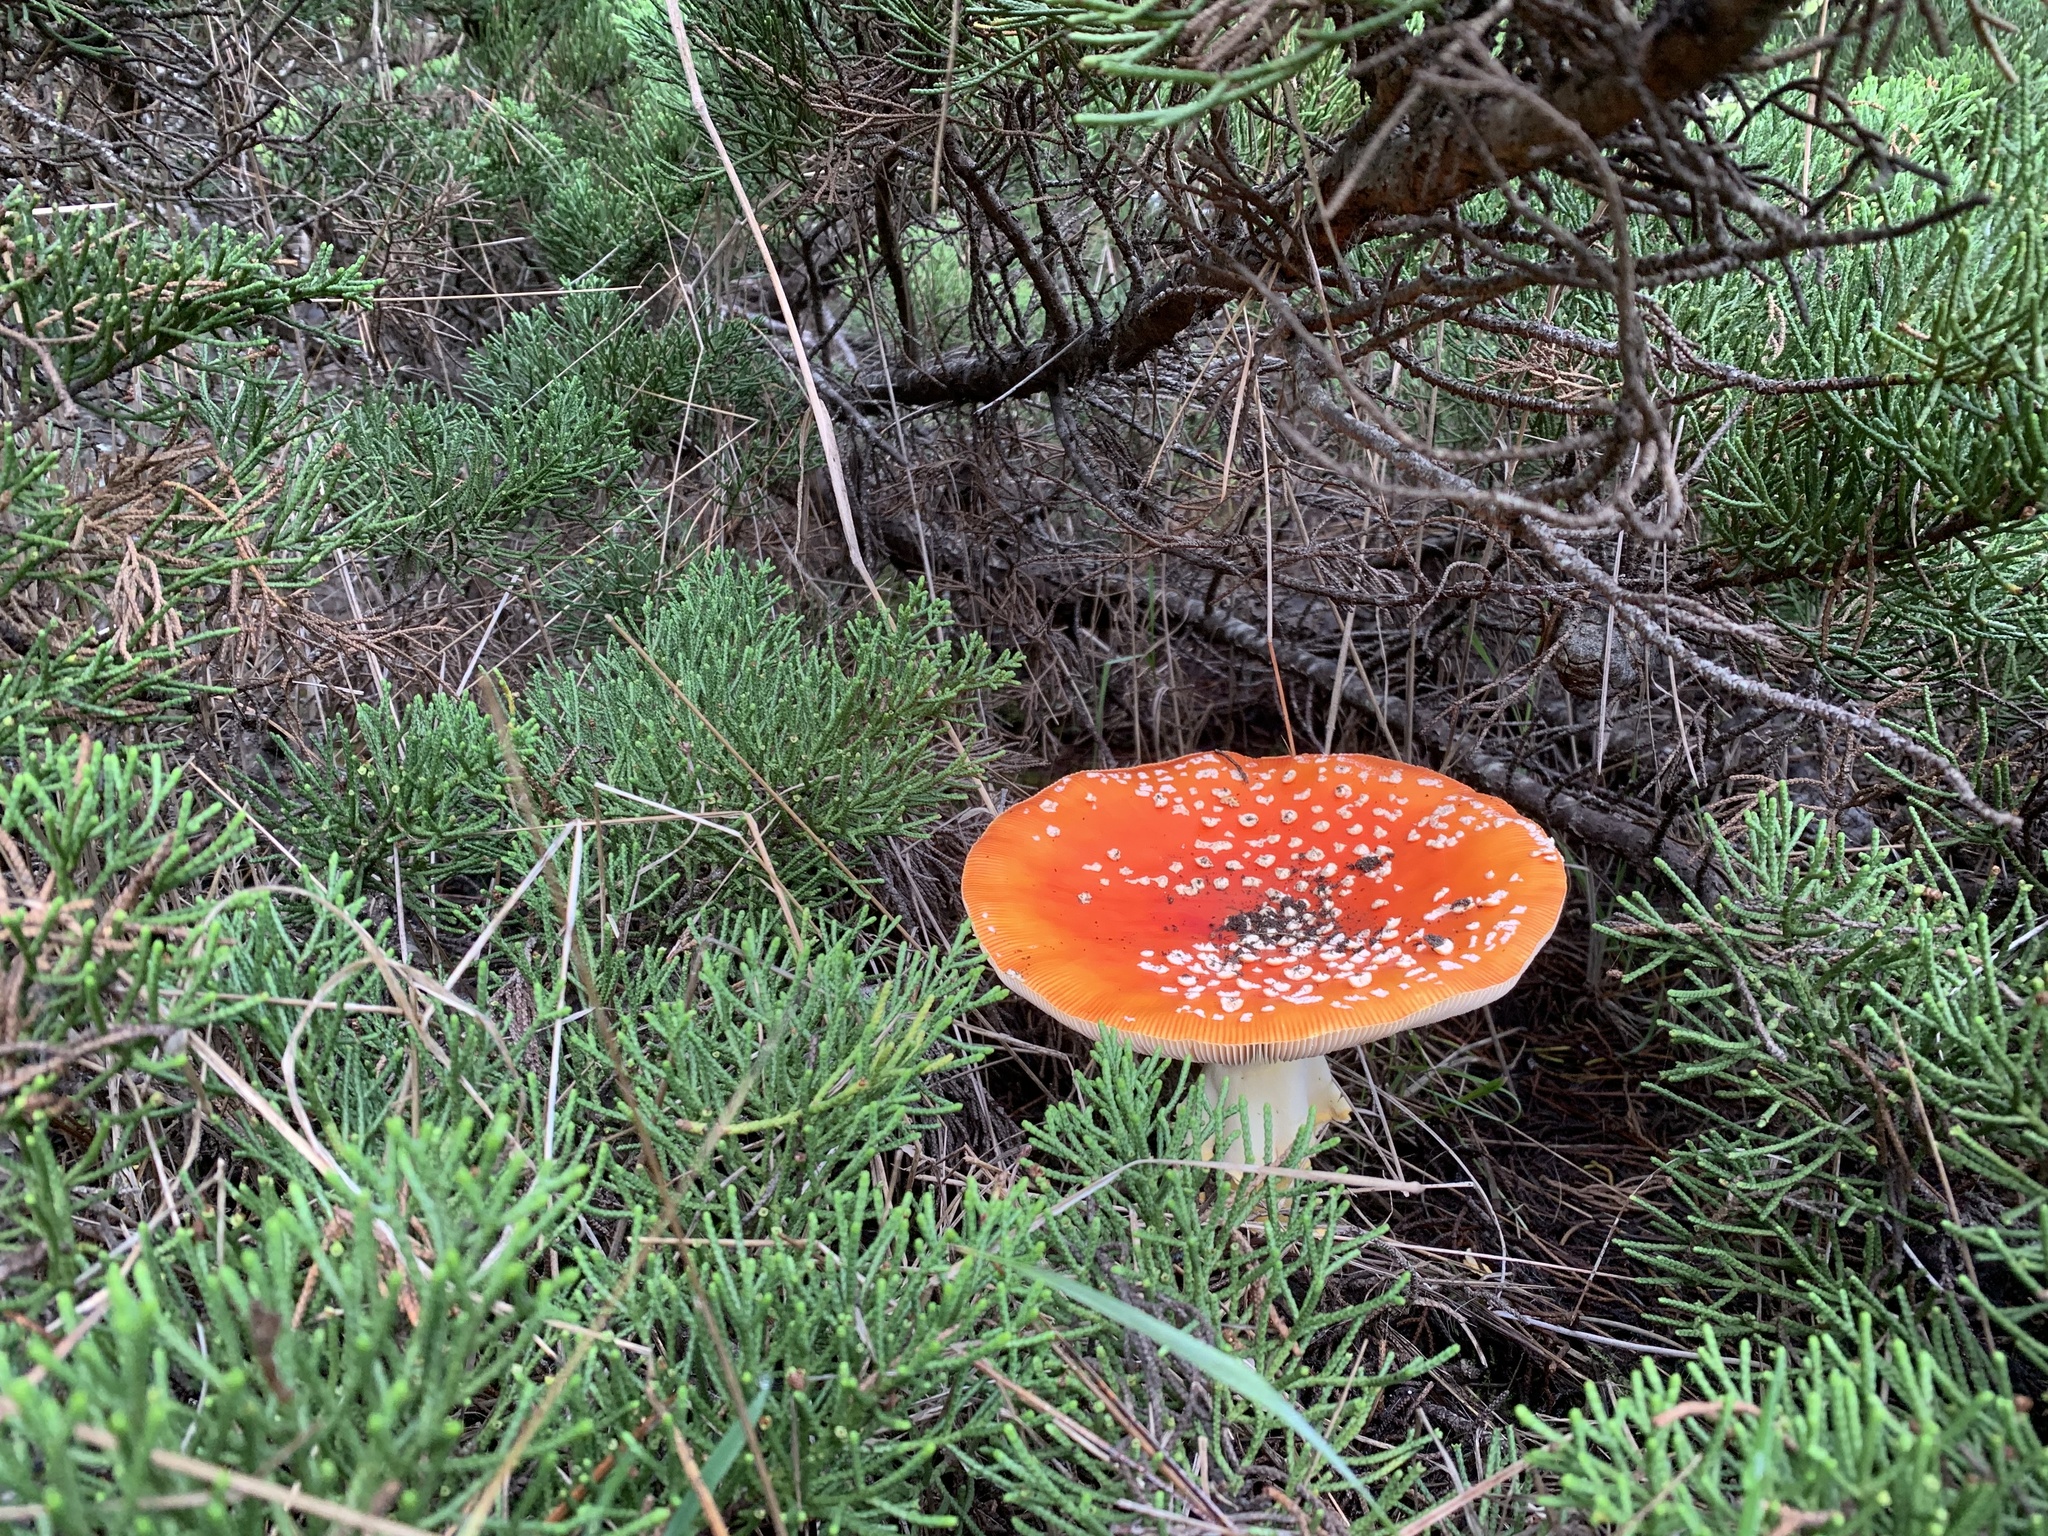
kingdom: Fungi
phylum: Basidiomycota
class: Agaricomycetes
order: Agaricales
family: Amanitaceae
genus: Amanita
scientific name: Amanita muscaria
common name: Fly agaric
